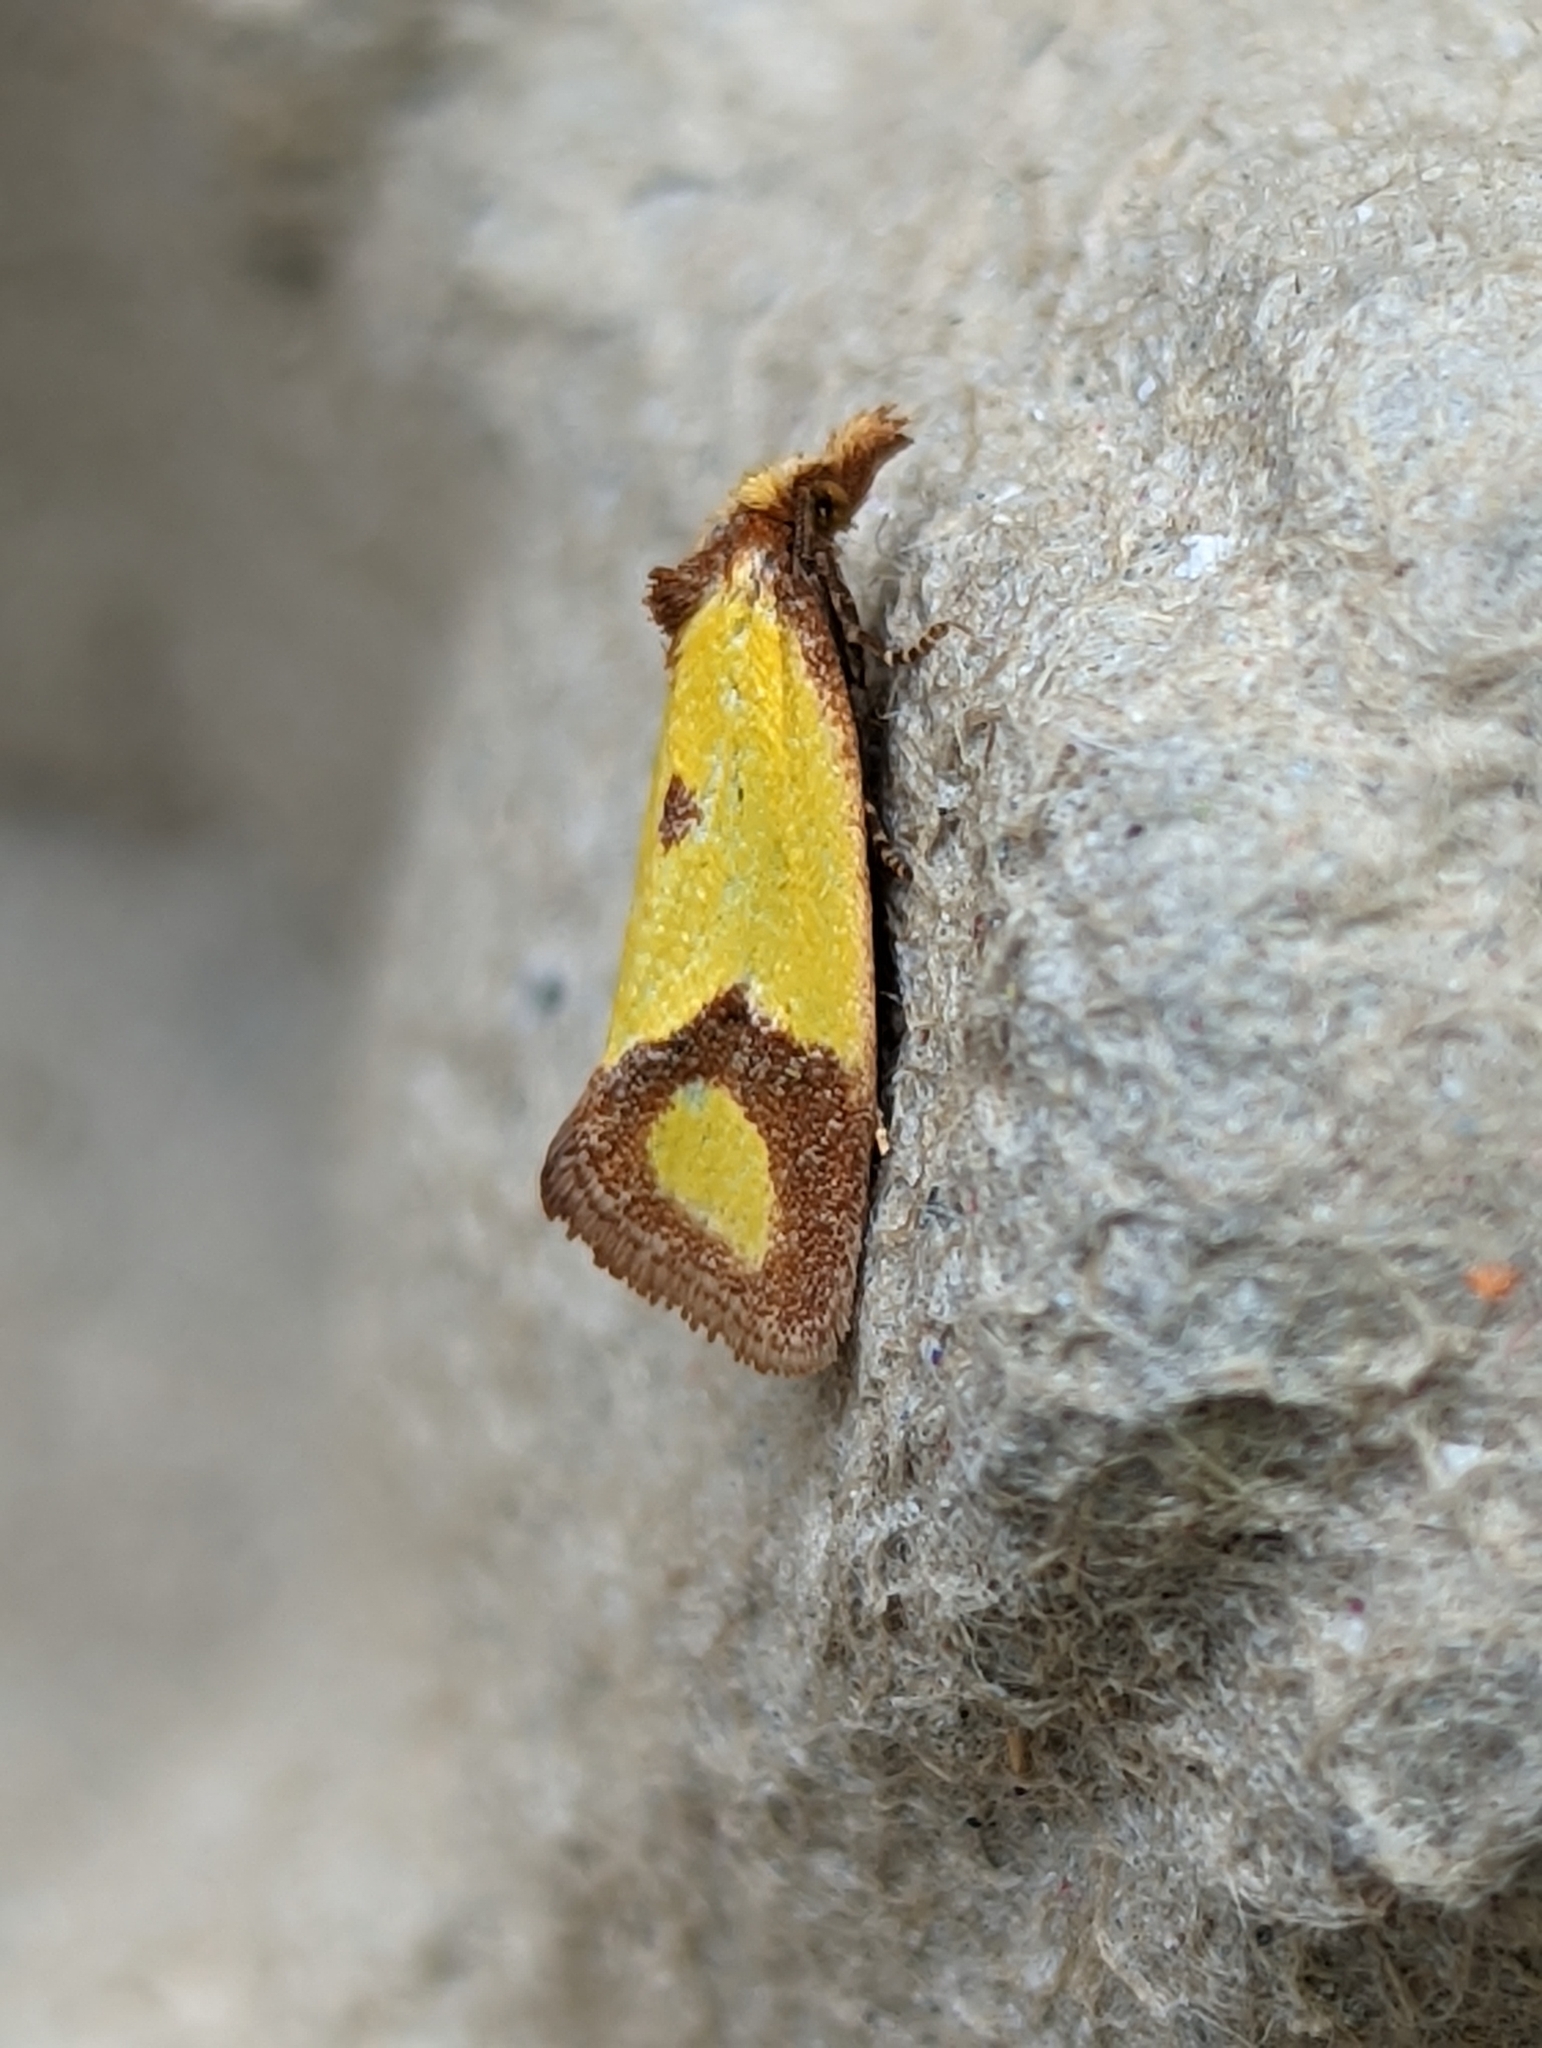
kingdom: Animalia
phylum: Arthropoda
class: Insecta
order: Lepidoptera
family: Tortricidae
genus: Agapeta
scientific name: Agapeta zoegana
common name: Sulfur knapweed root moth
